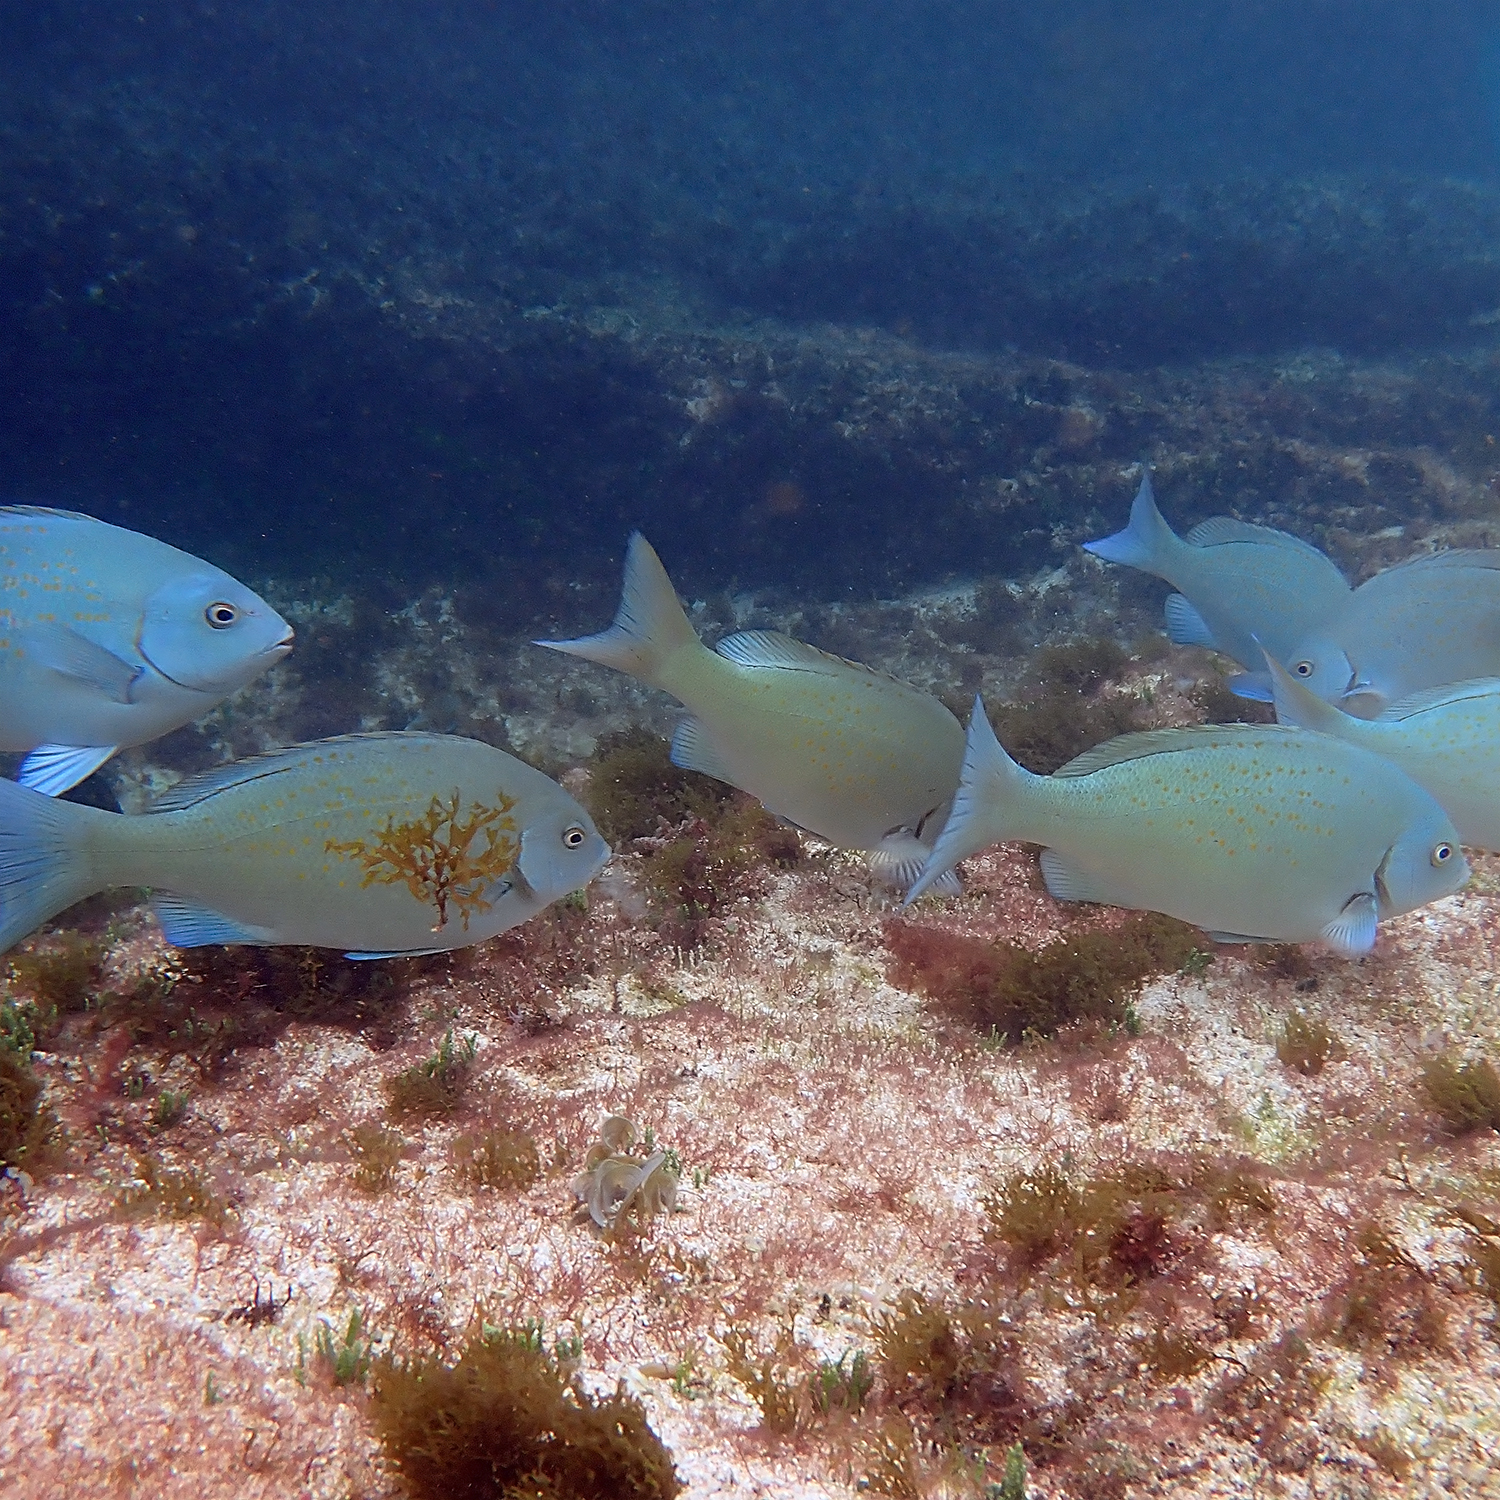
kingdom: Animalia
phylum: Chordata
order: Perciformes
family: Kyphosidae
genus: Girella
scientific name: Girella cyanea
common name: Bluefish
